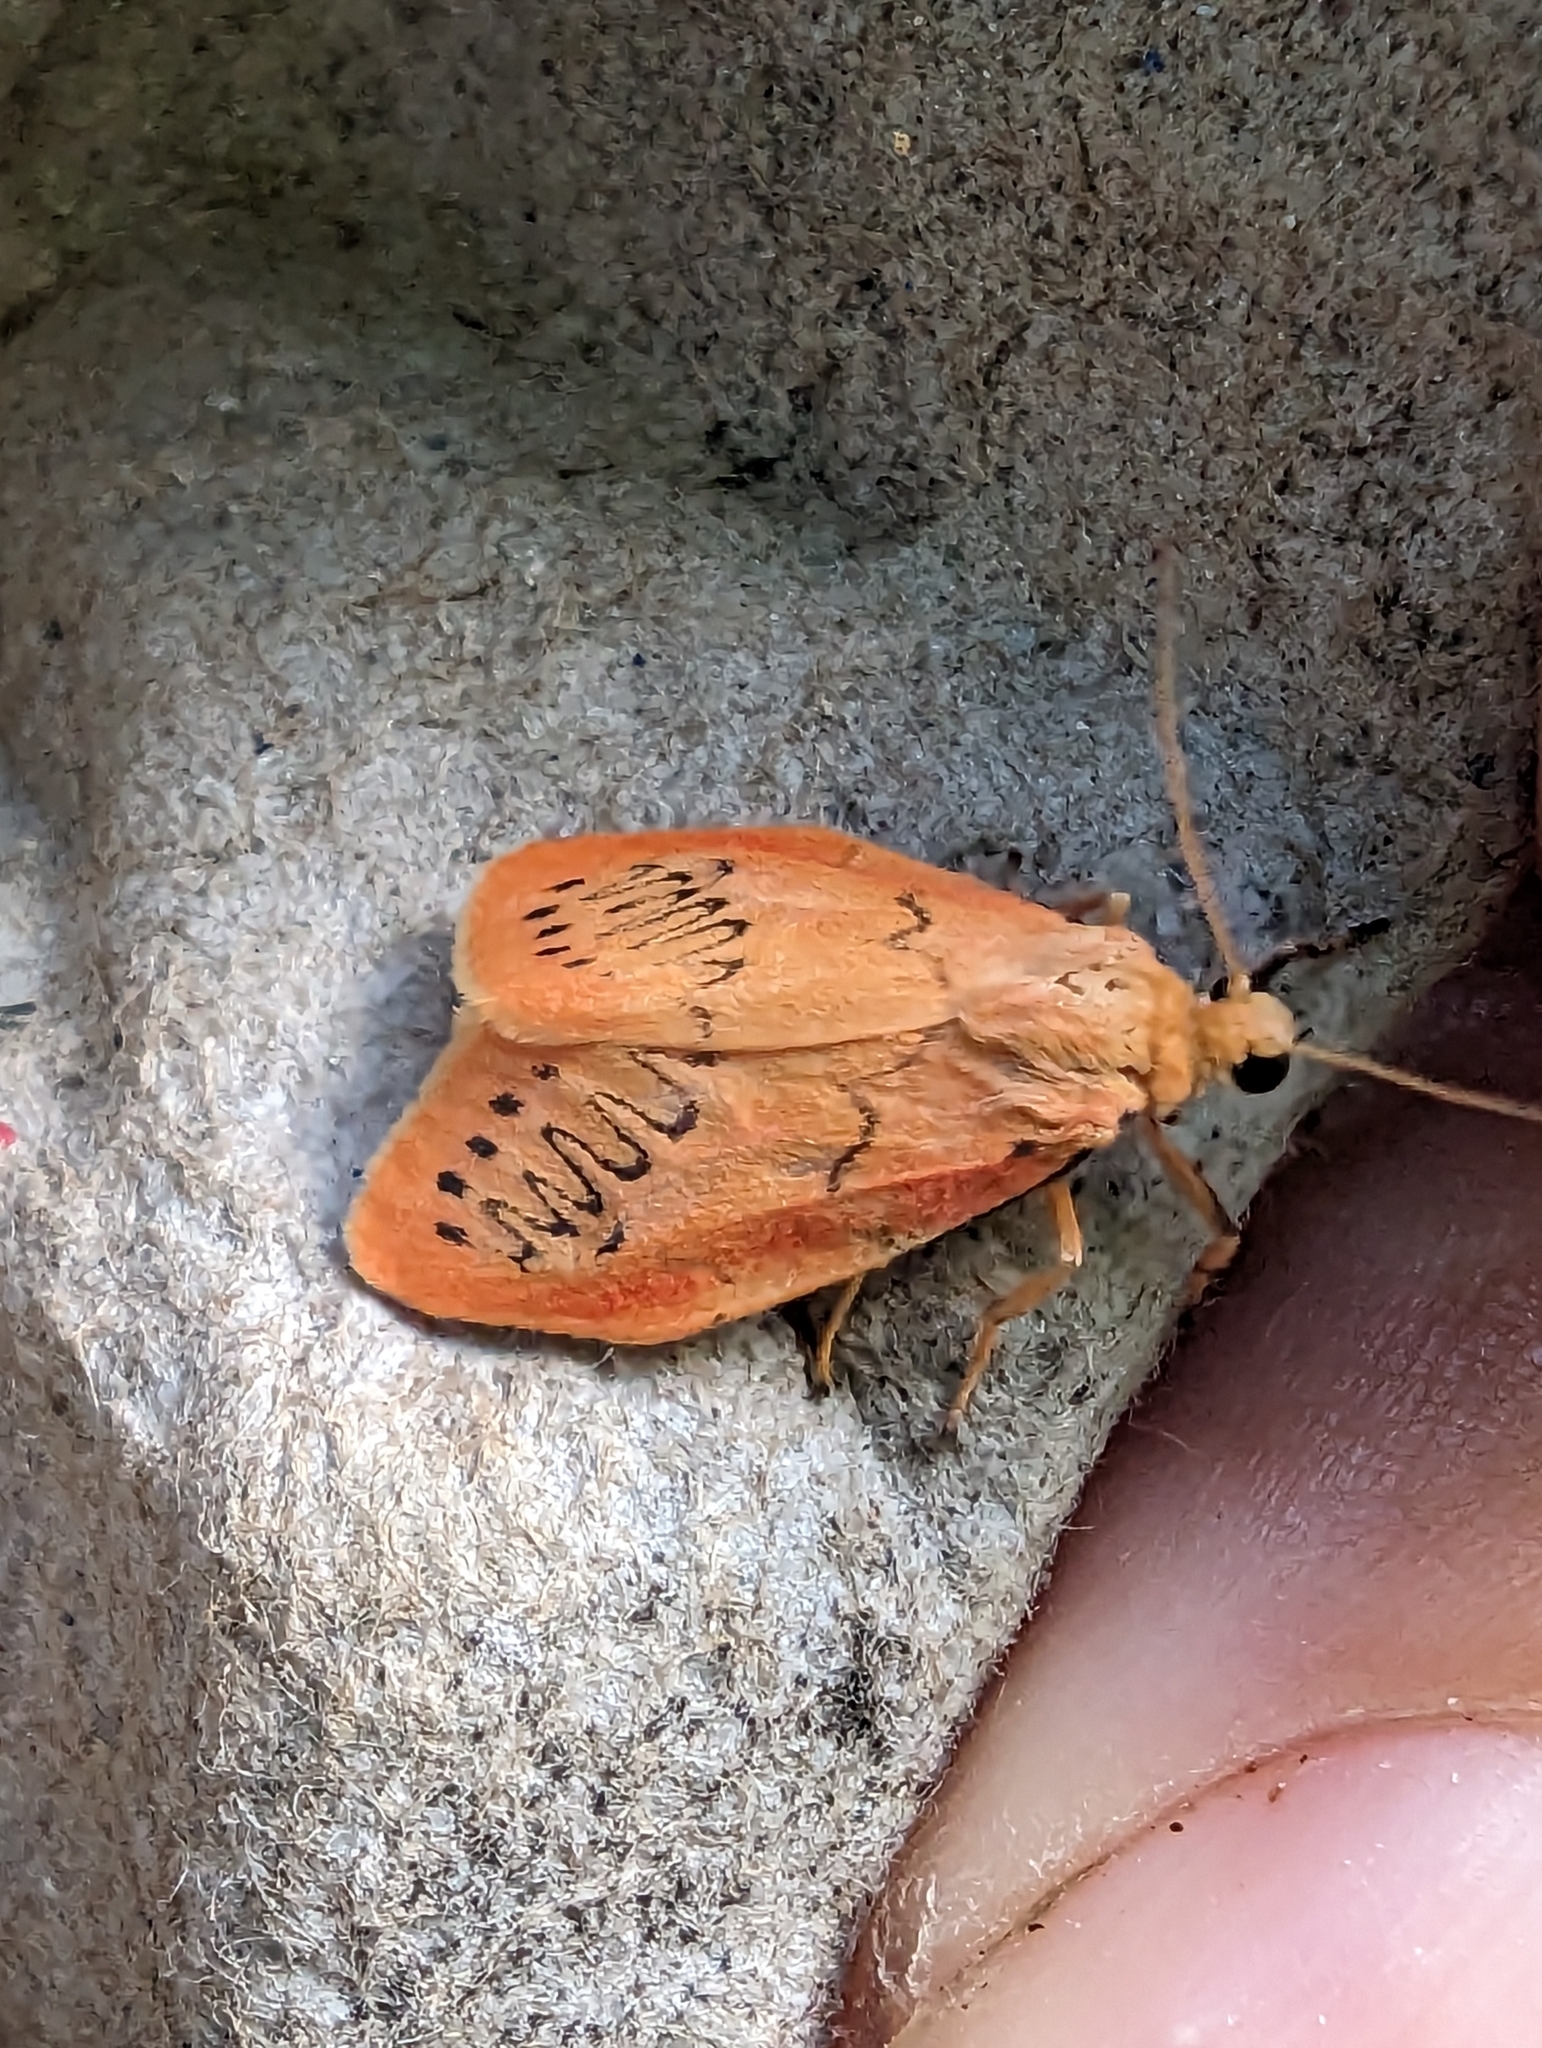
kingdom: Animalia
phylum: Arthropoda
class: Insecta
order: Lepidoptera
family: Erebidae
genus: Miltochrista
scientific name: Miltochrista miniata
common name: Rosy footman
